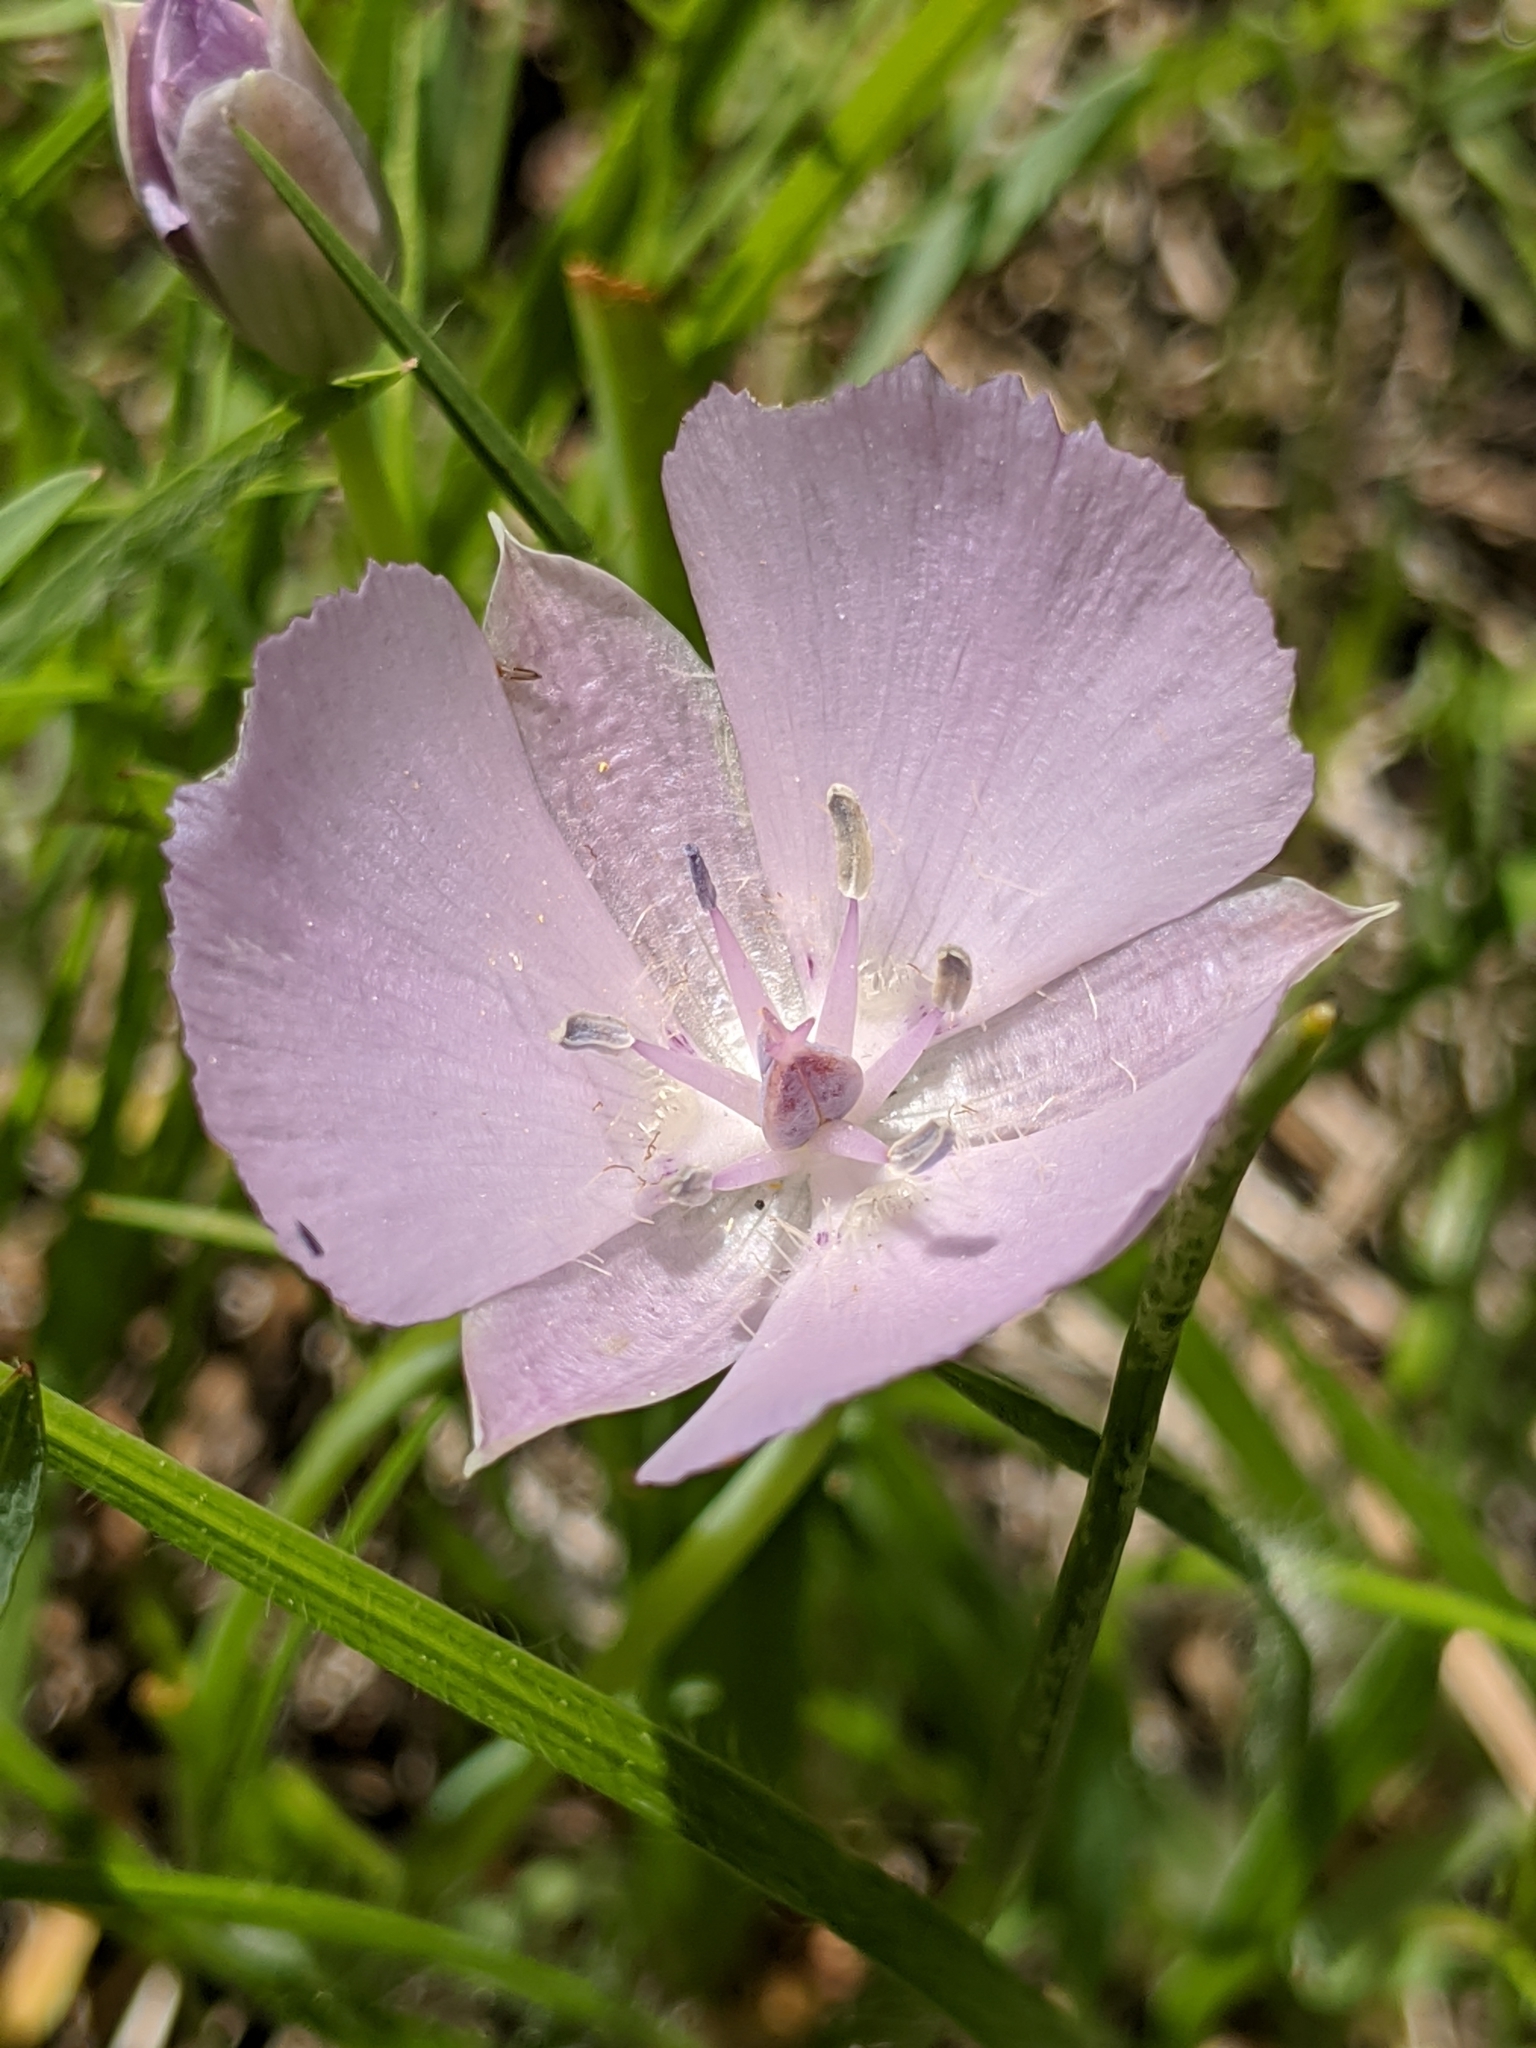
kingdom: Plantae
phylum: Tracheophyta
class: Liliopsida
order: Liliales
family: Liliaceae
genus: Calochortus
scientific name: Calochortus uniflorus
